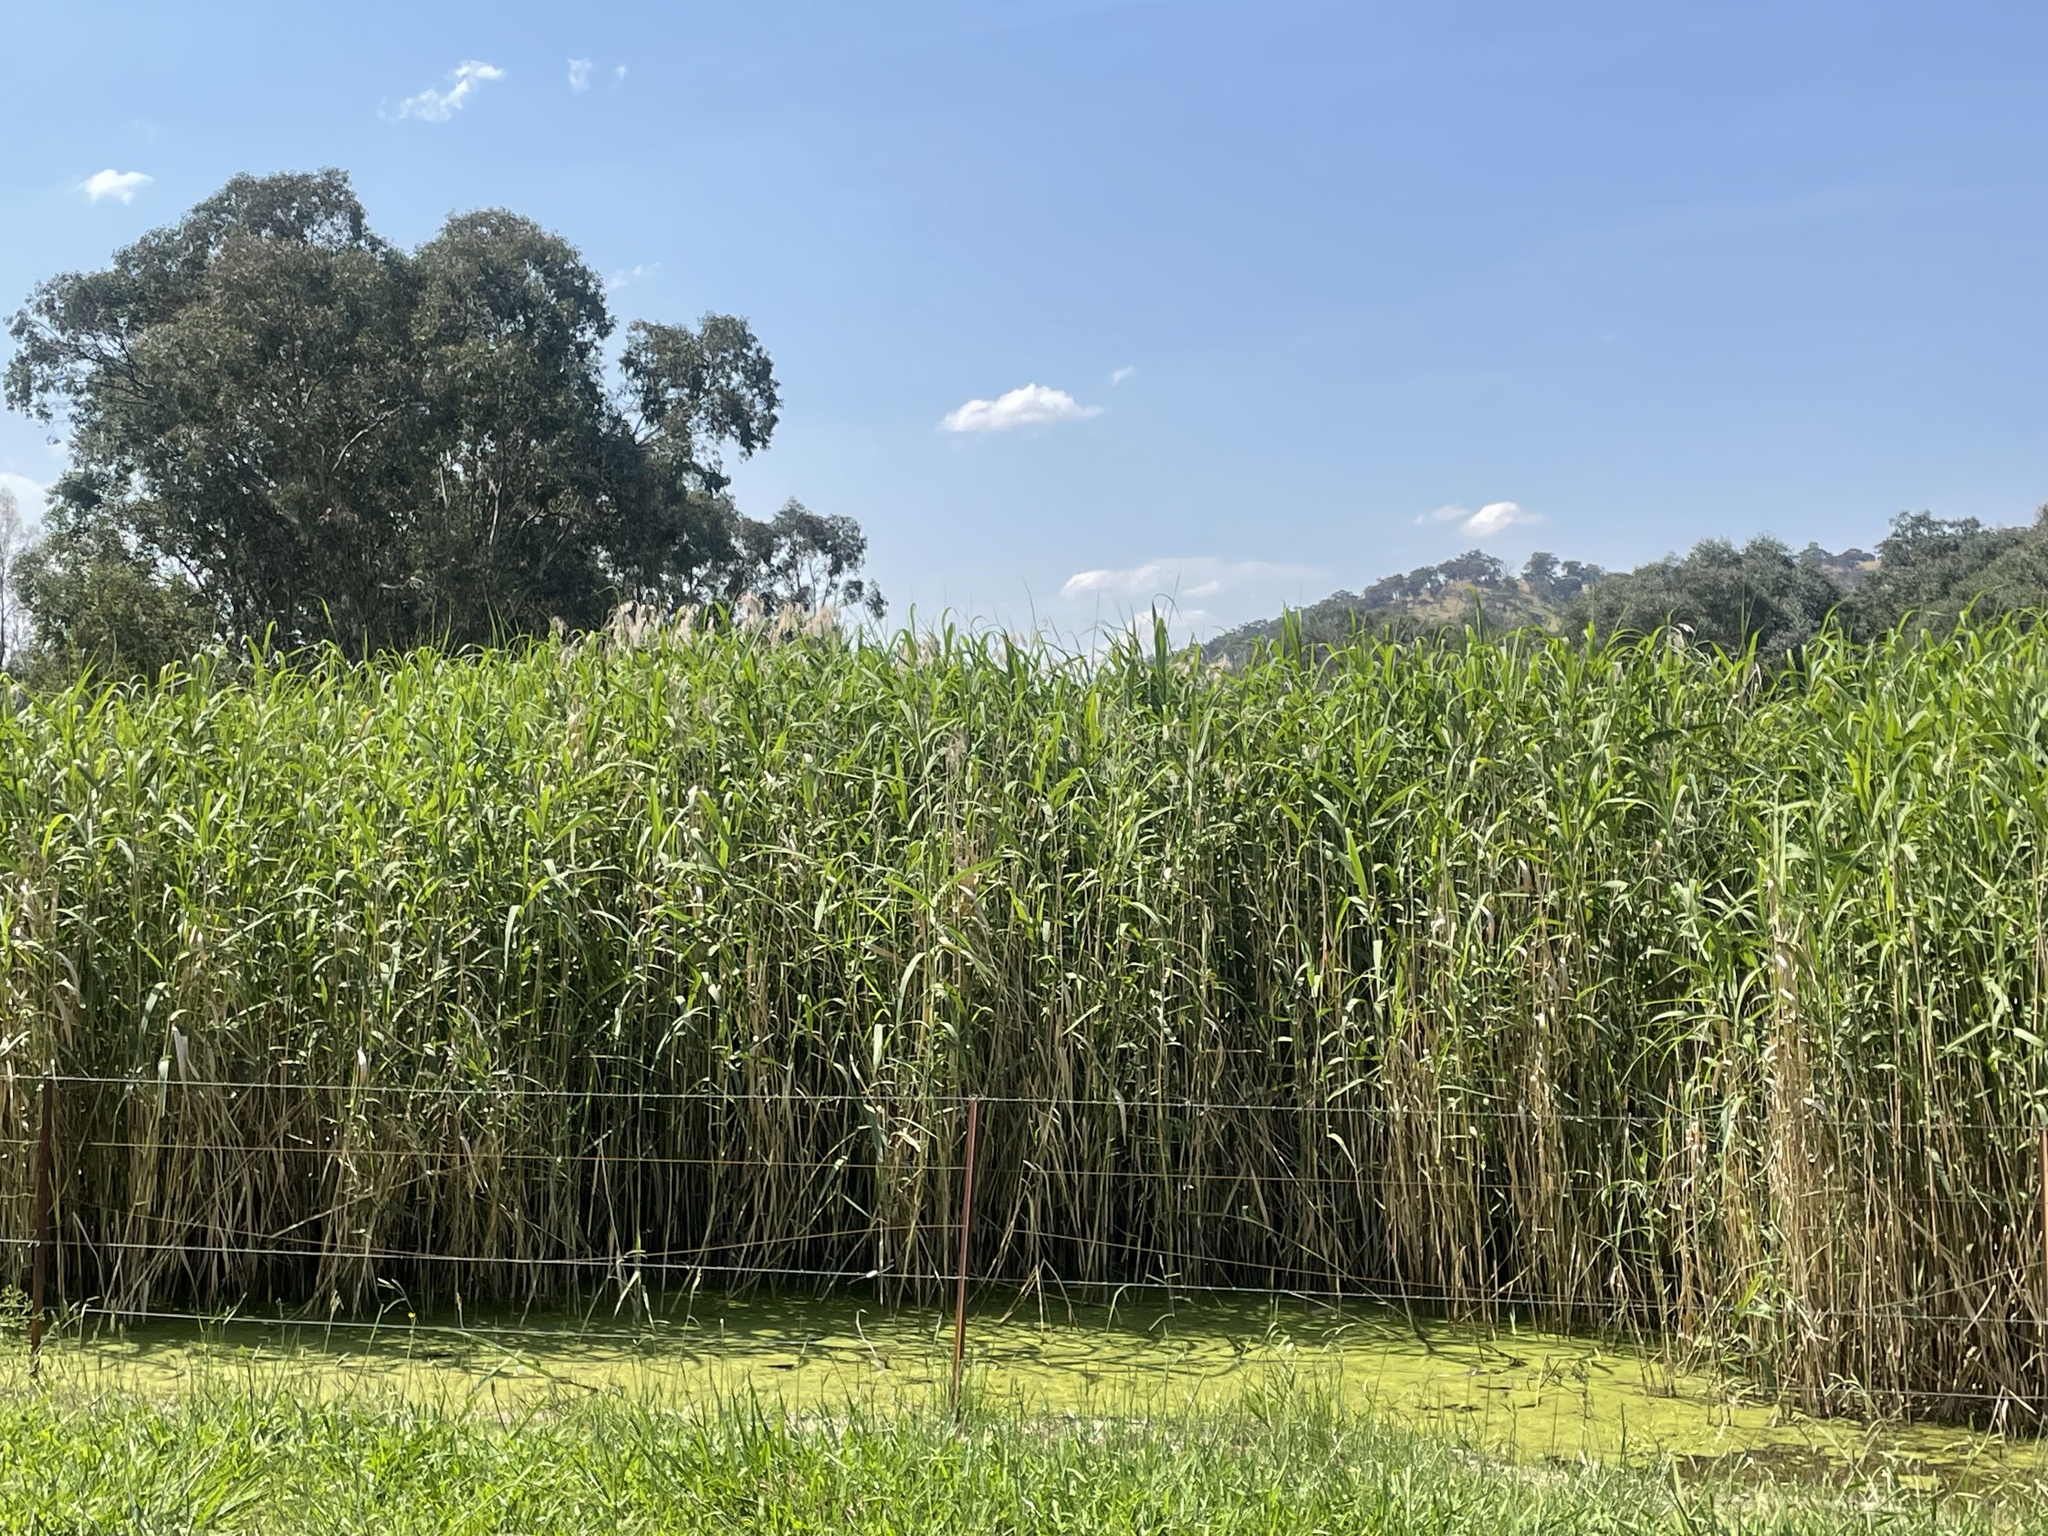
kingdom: Plantae
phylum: Tracheophyta
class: Liliopsida
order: Poales
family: Poaceae
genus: Phragmites
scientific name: Phragmites australis
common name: Common reed
